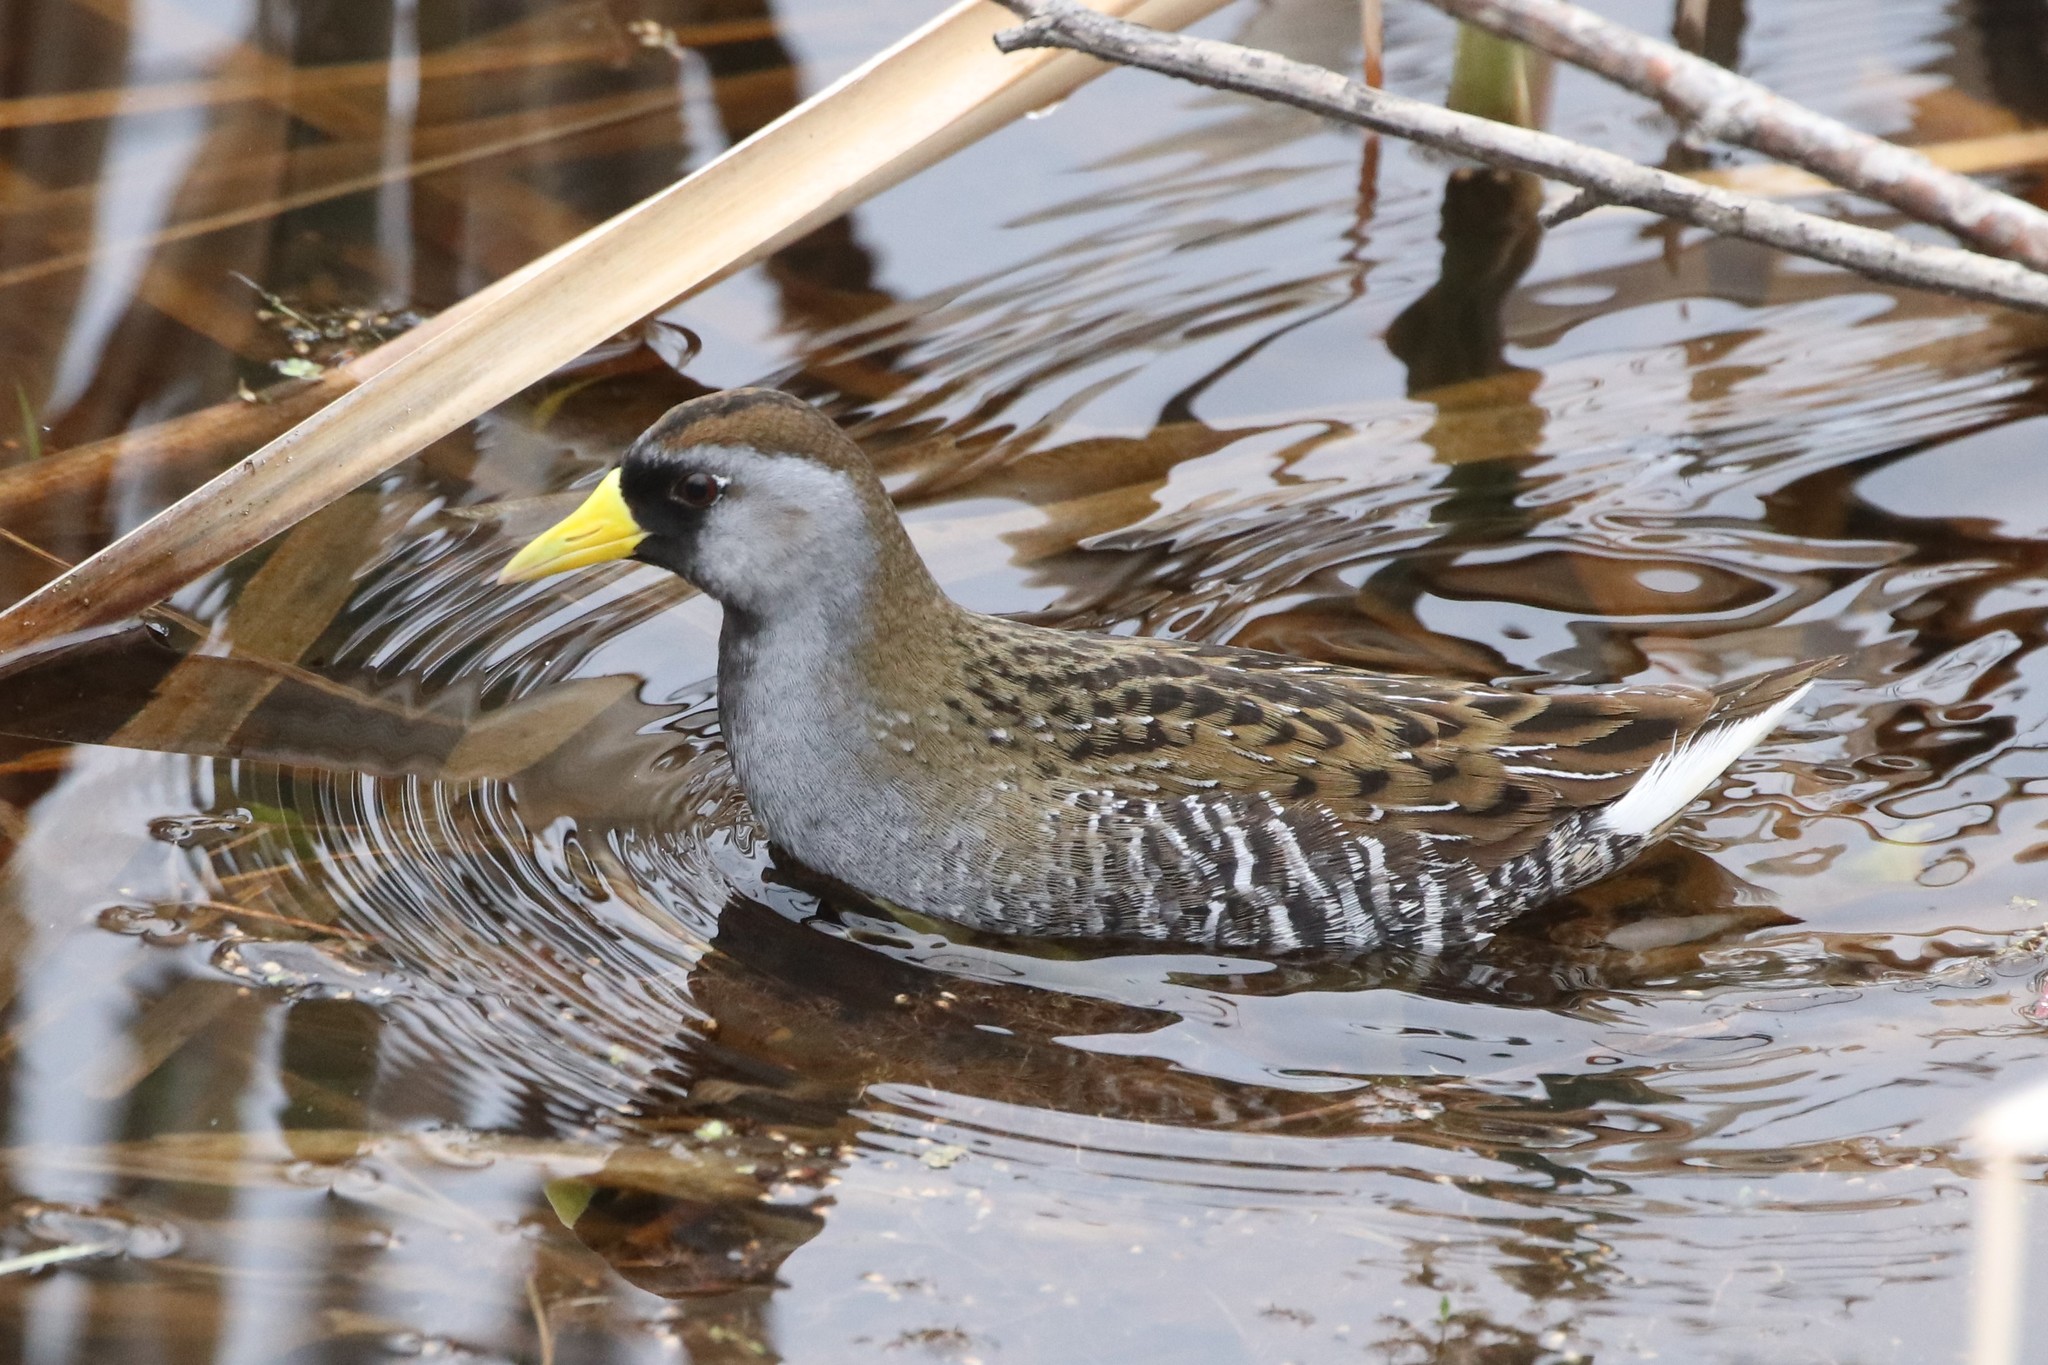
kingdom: Animalia
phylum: Chordata
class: Aves
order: Gruiformes
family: Rallidae
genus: Porzana
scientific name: Porzana carolina
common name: Sora
